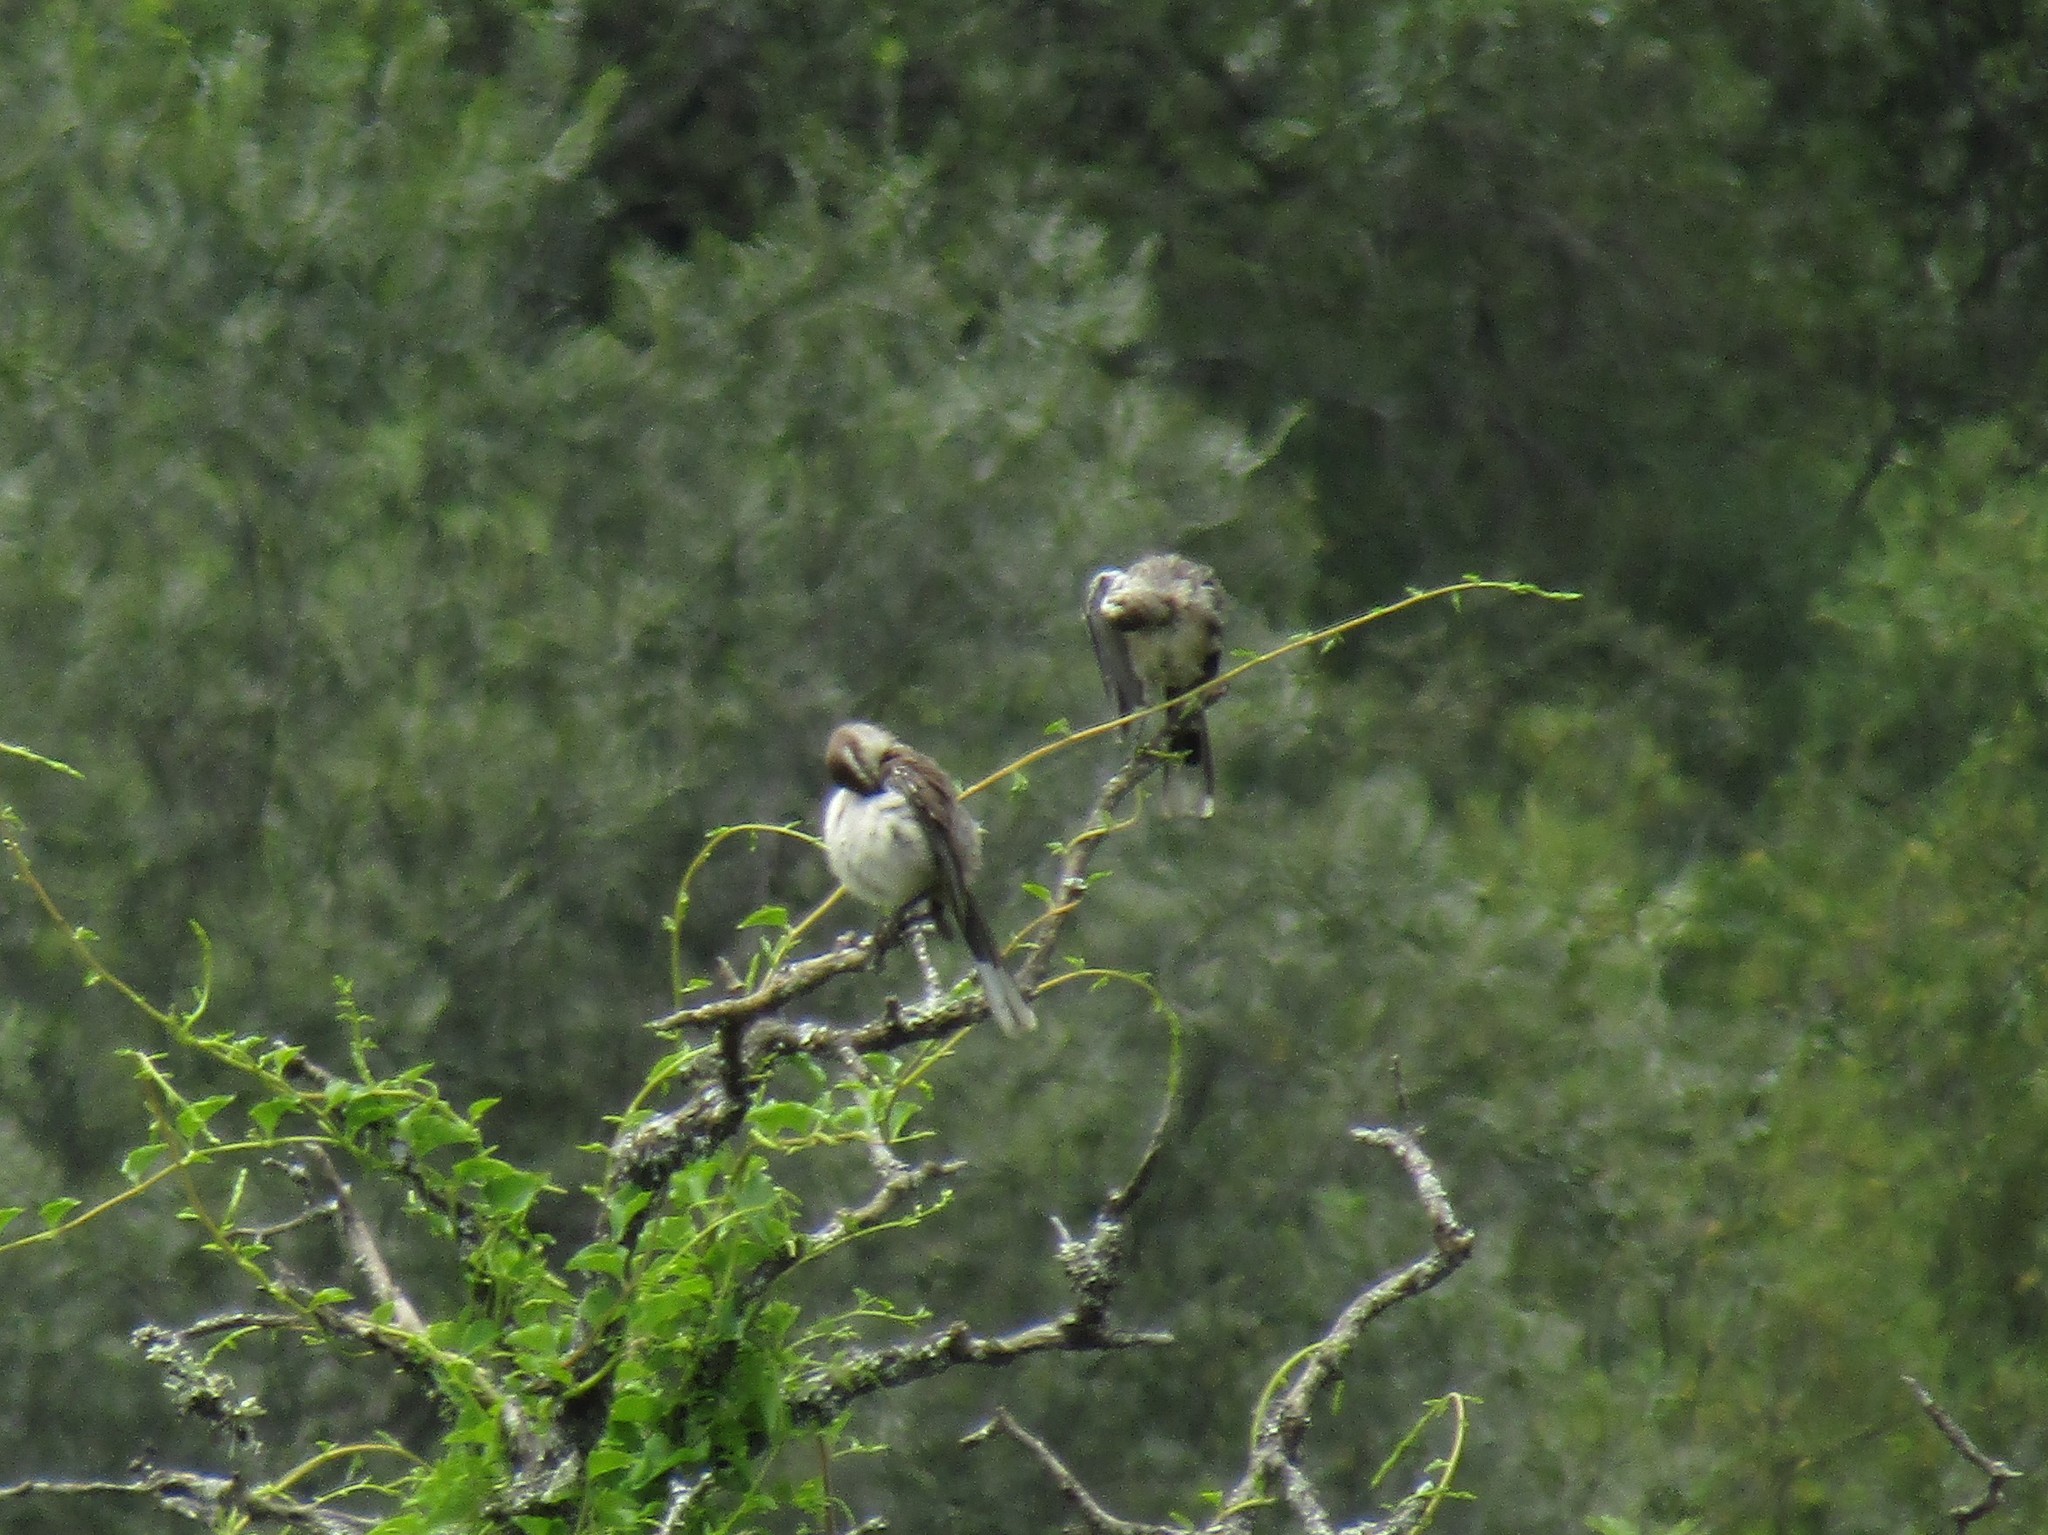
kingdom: Animalia
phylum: Chordata
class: Aves
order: Passeriformes
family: Mimidae
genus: Mimus
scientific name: Mimus saturninus
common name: Chalk-browed mockingbird
